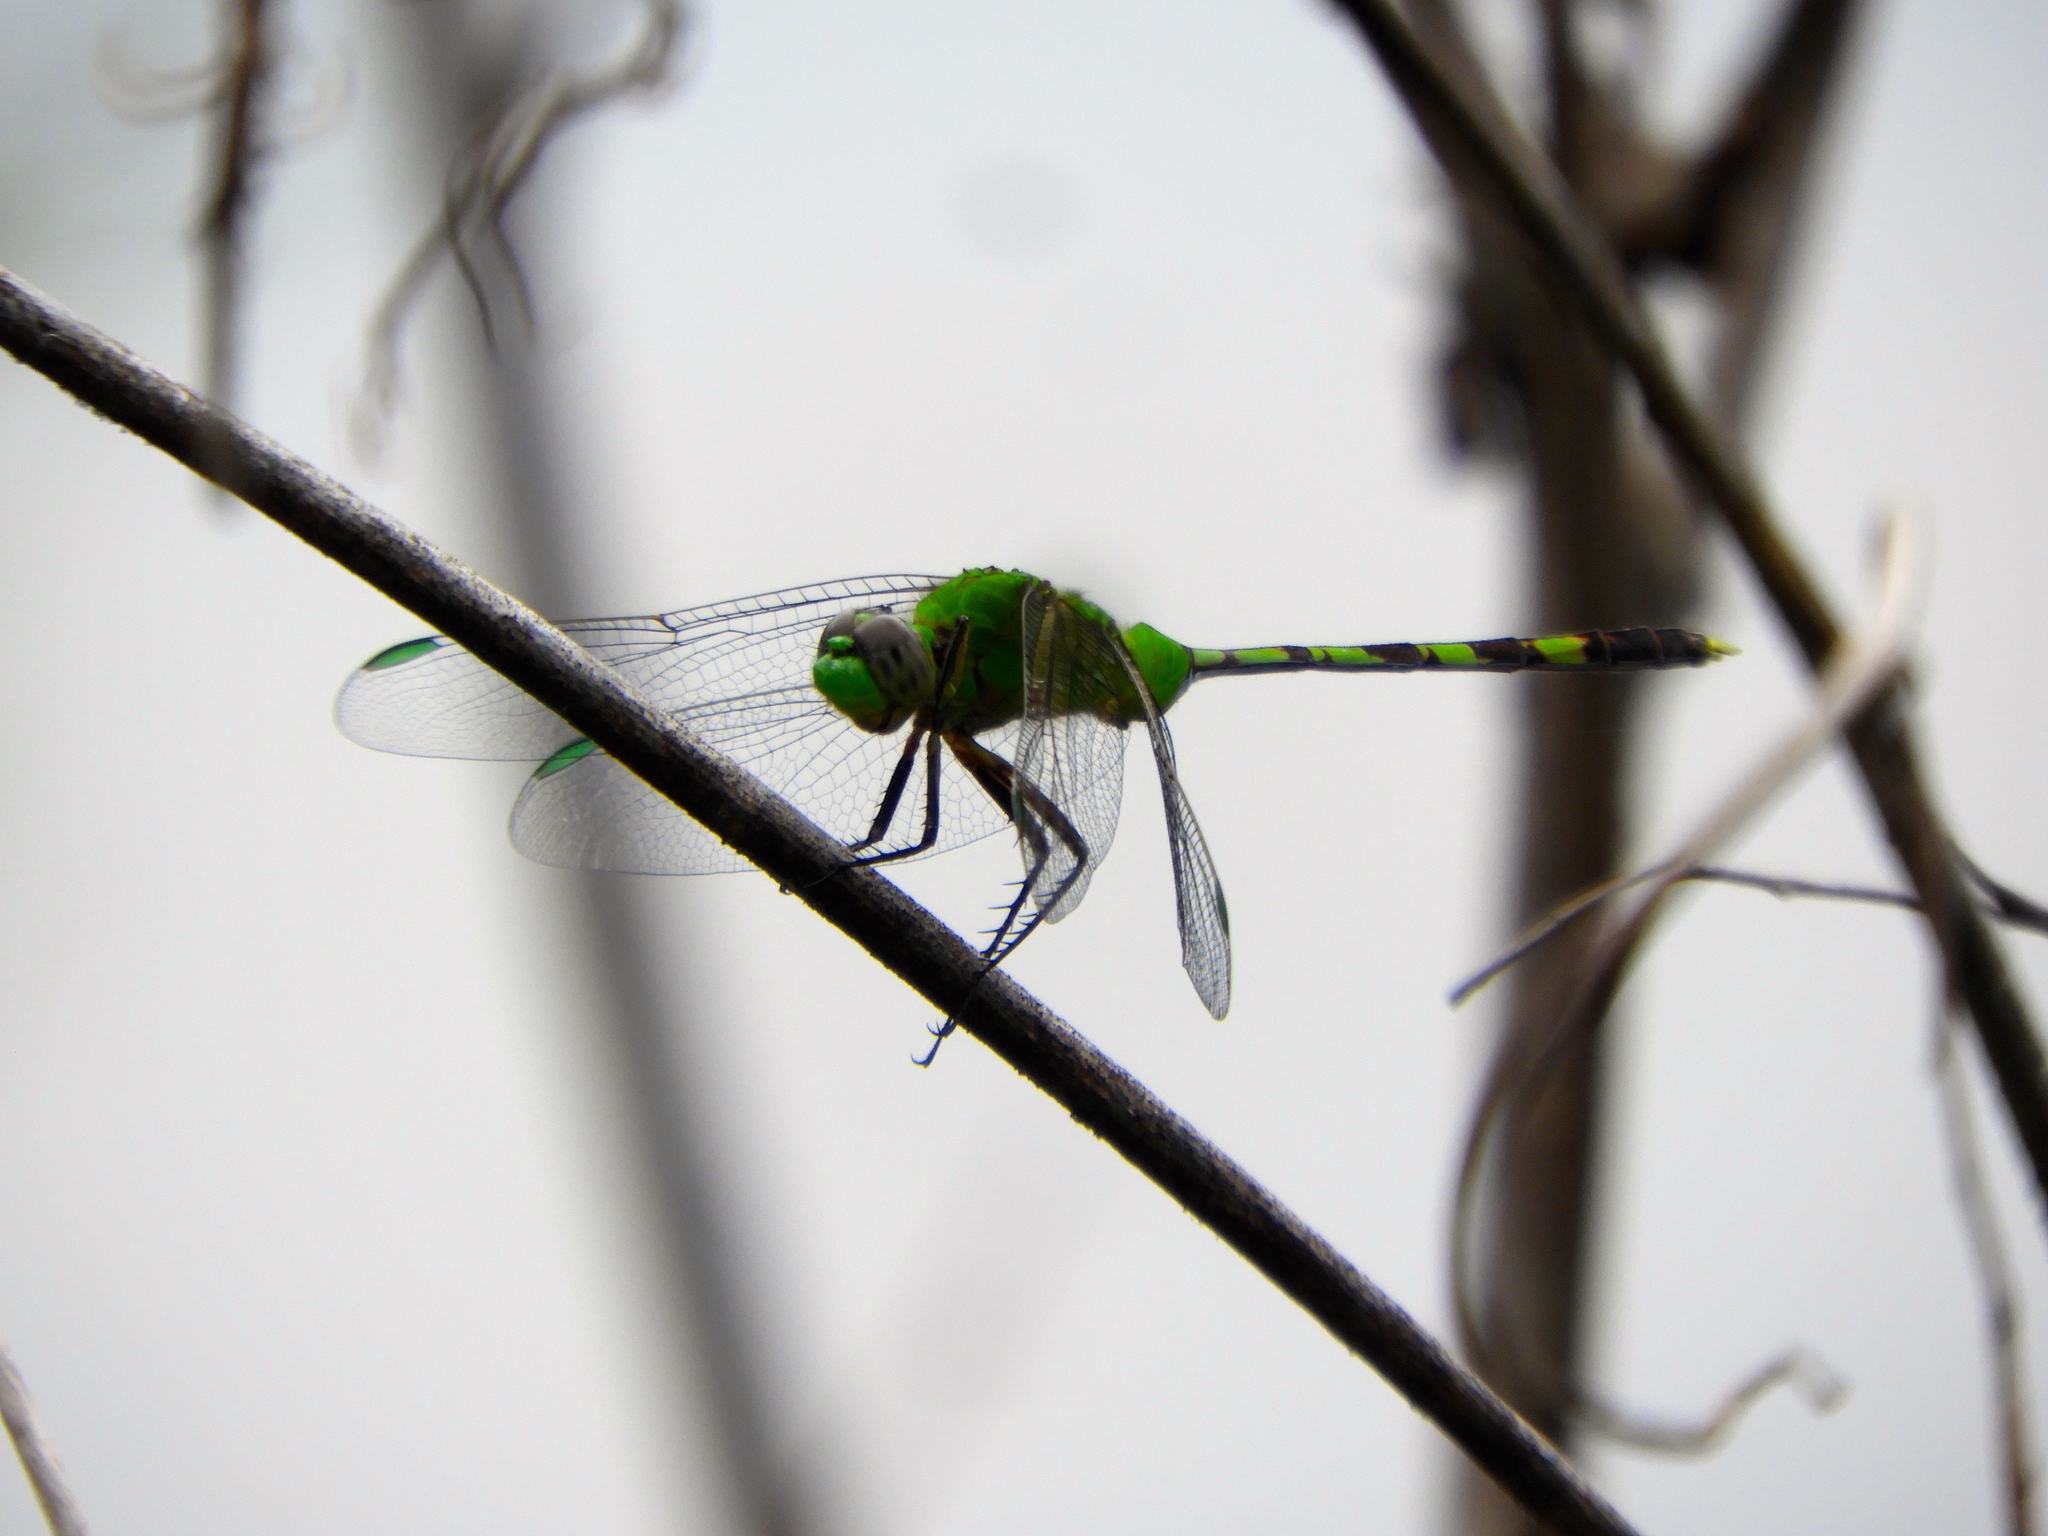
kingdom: Animalia
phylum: Arthropoda
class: Insecta
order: Odonata
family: Libellulidae
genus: Erythemis
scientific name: Erythemis vesiculosa
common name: Great pondhawk
